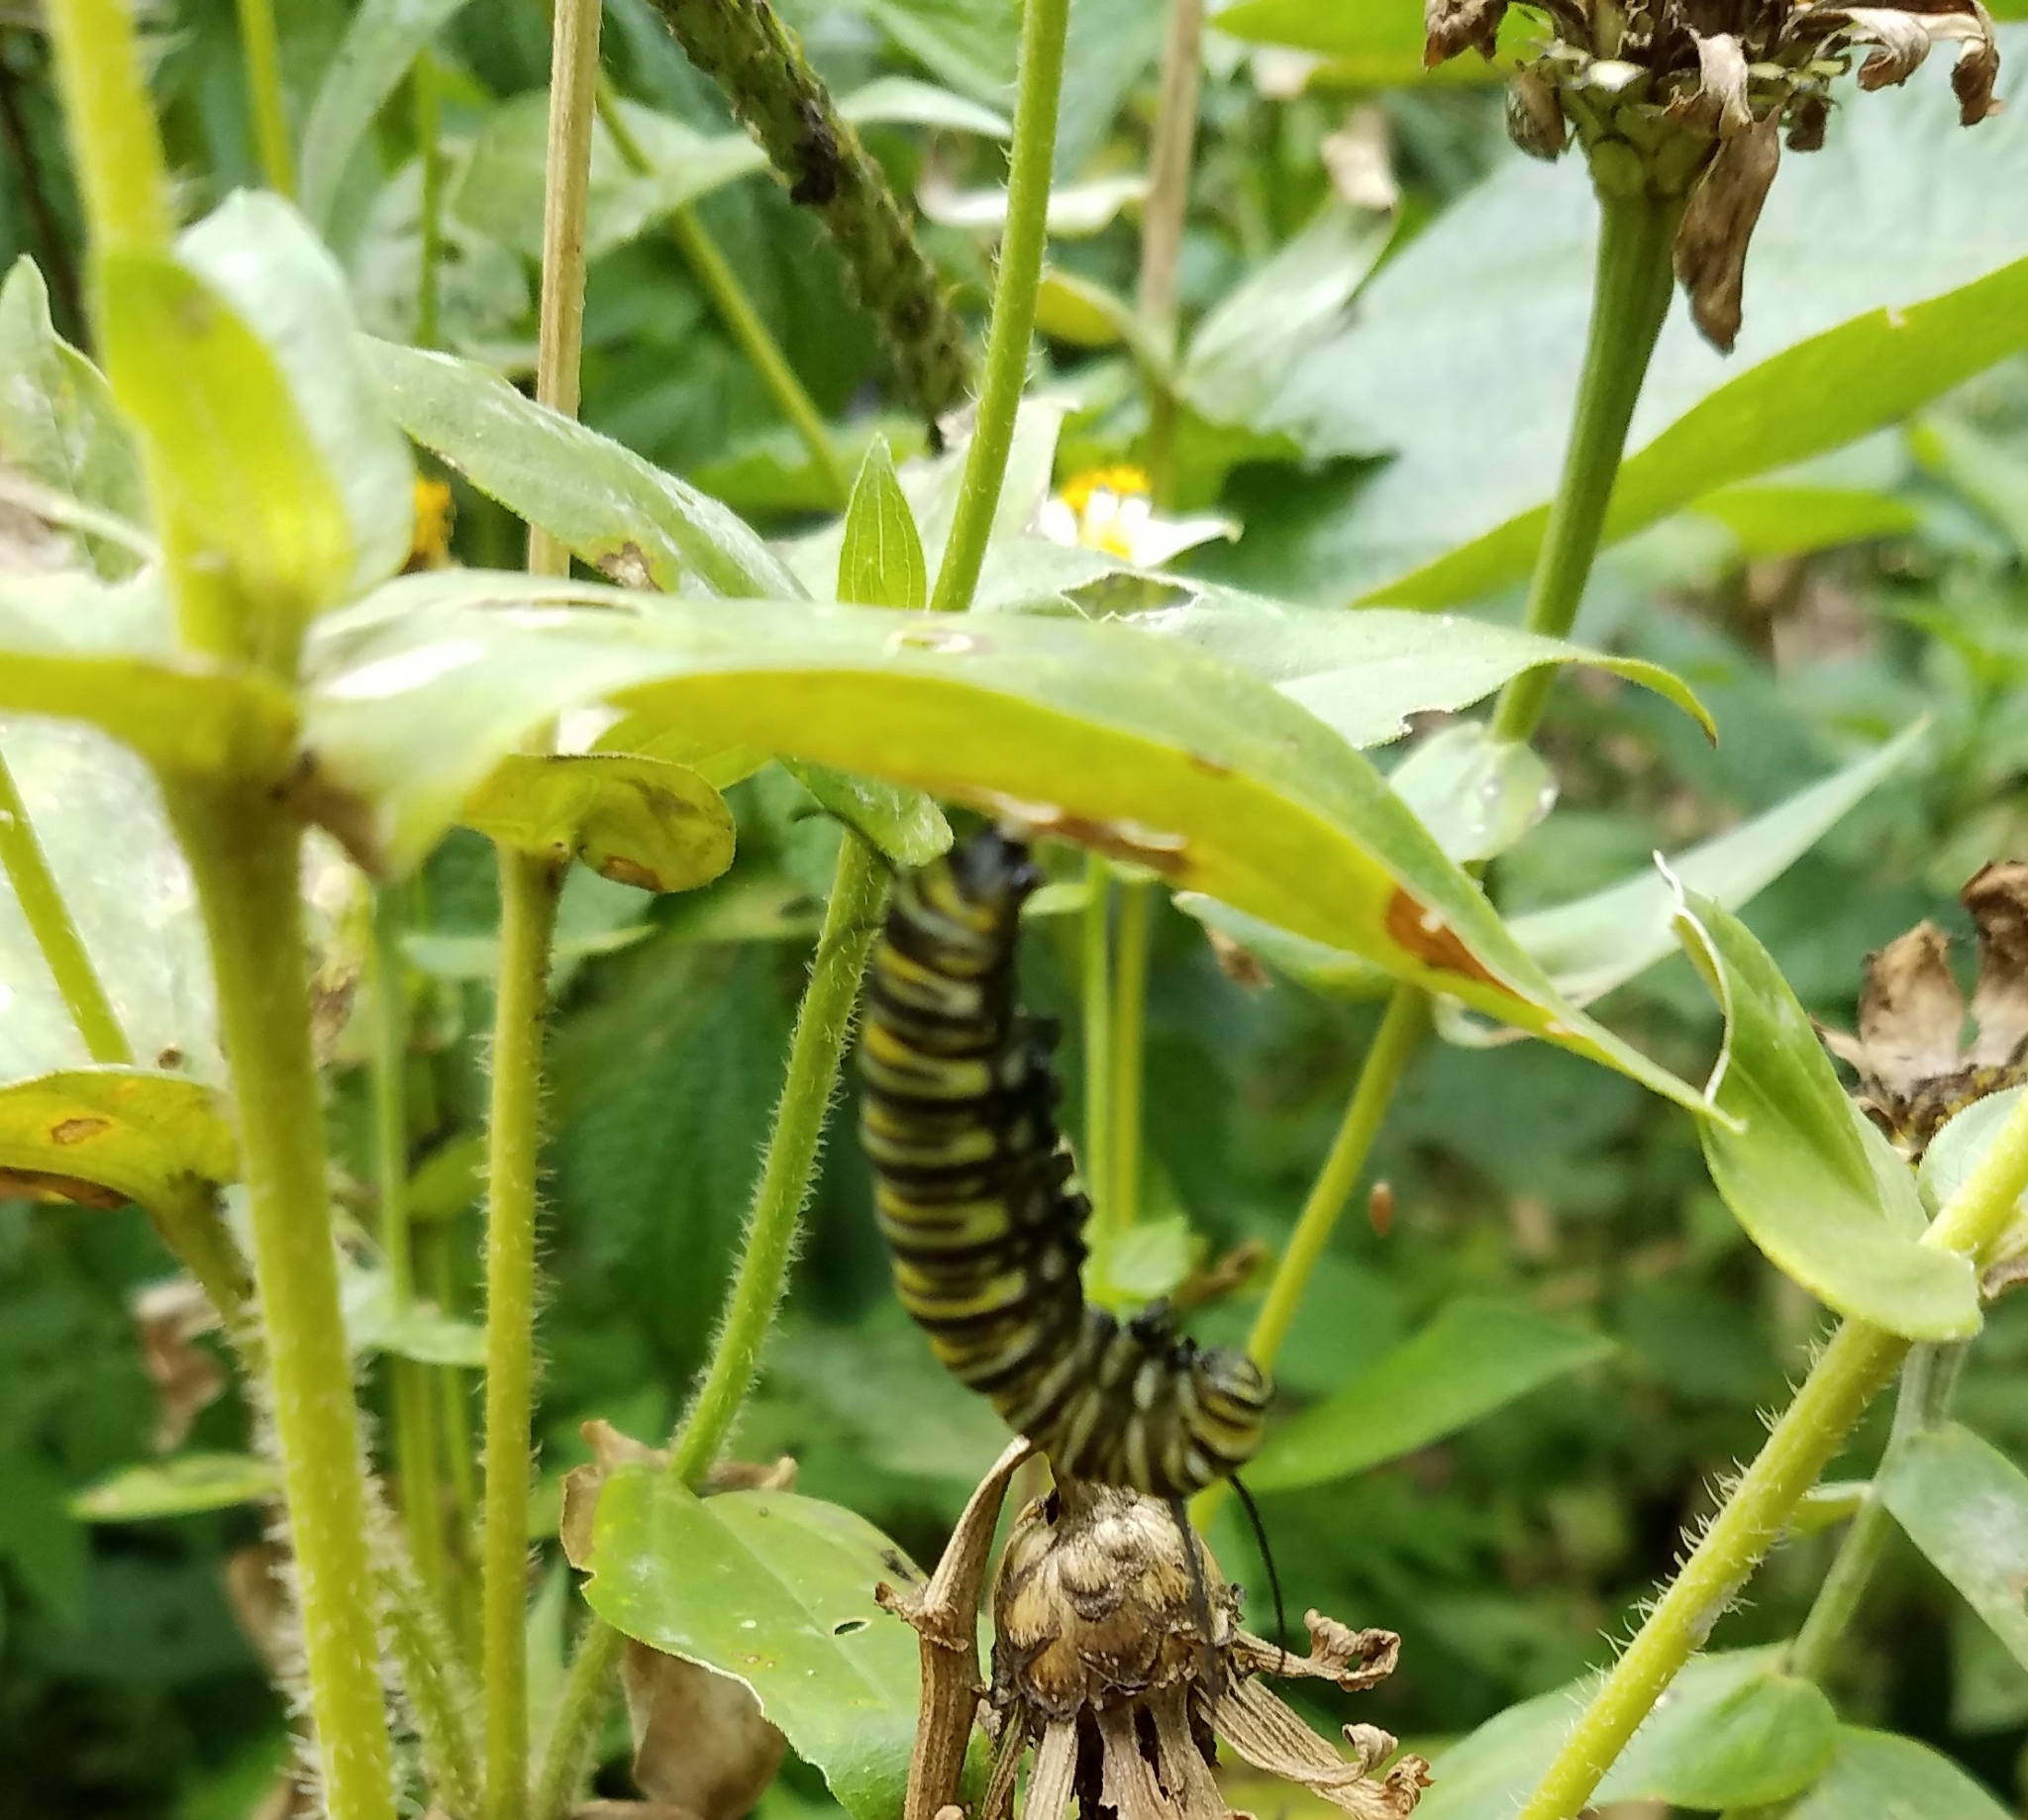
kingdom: Animalia
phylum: Arthropoda
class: Insecta
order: Lepidoptera
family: Nymphalidae
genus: Danaus
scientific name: Danaus plexippus
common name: Monarch
